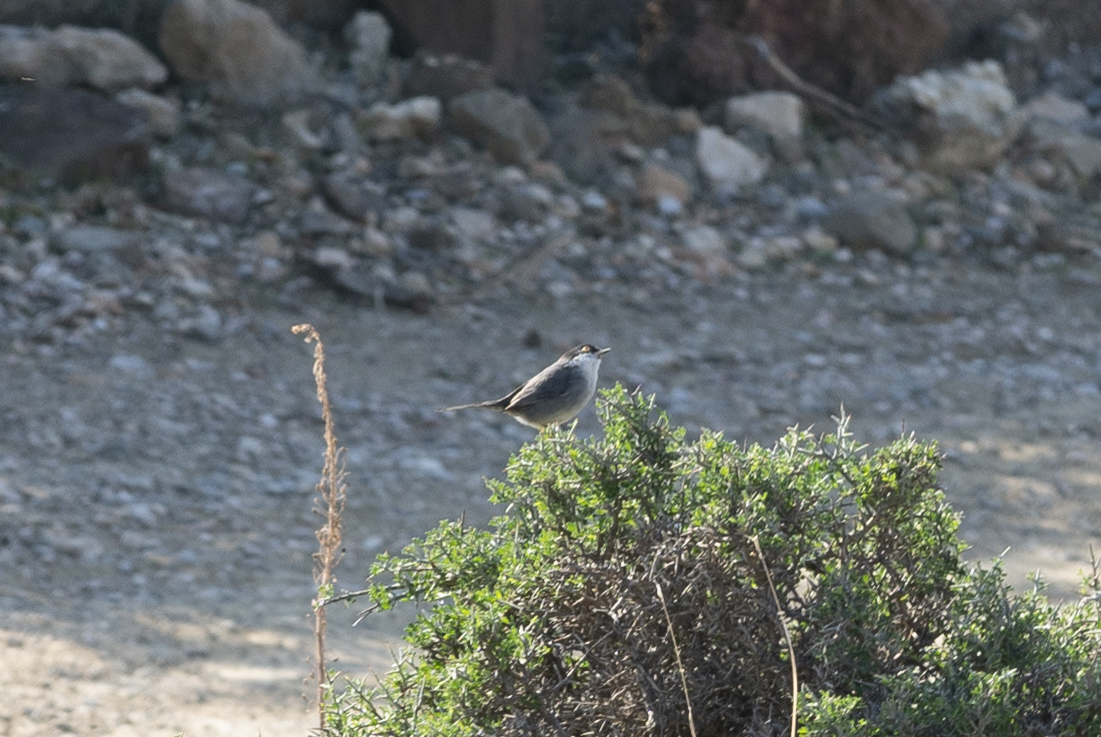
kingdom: Animalia
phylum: Chordata
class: Aves
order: Passeriformes
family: Sylviidae
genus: Curruca
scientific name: Curruca melanocephala
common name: Sardinian warbler
